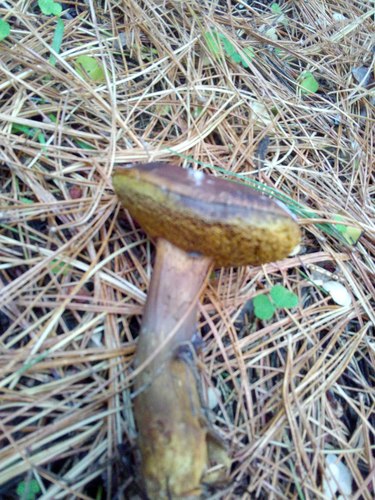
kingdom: Fungi
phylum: Basidiomycota
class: Agaricomycetes
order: Boletales
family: Boletaceae
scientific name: Boletaceae
